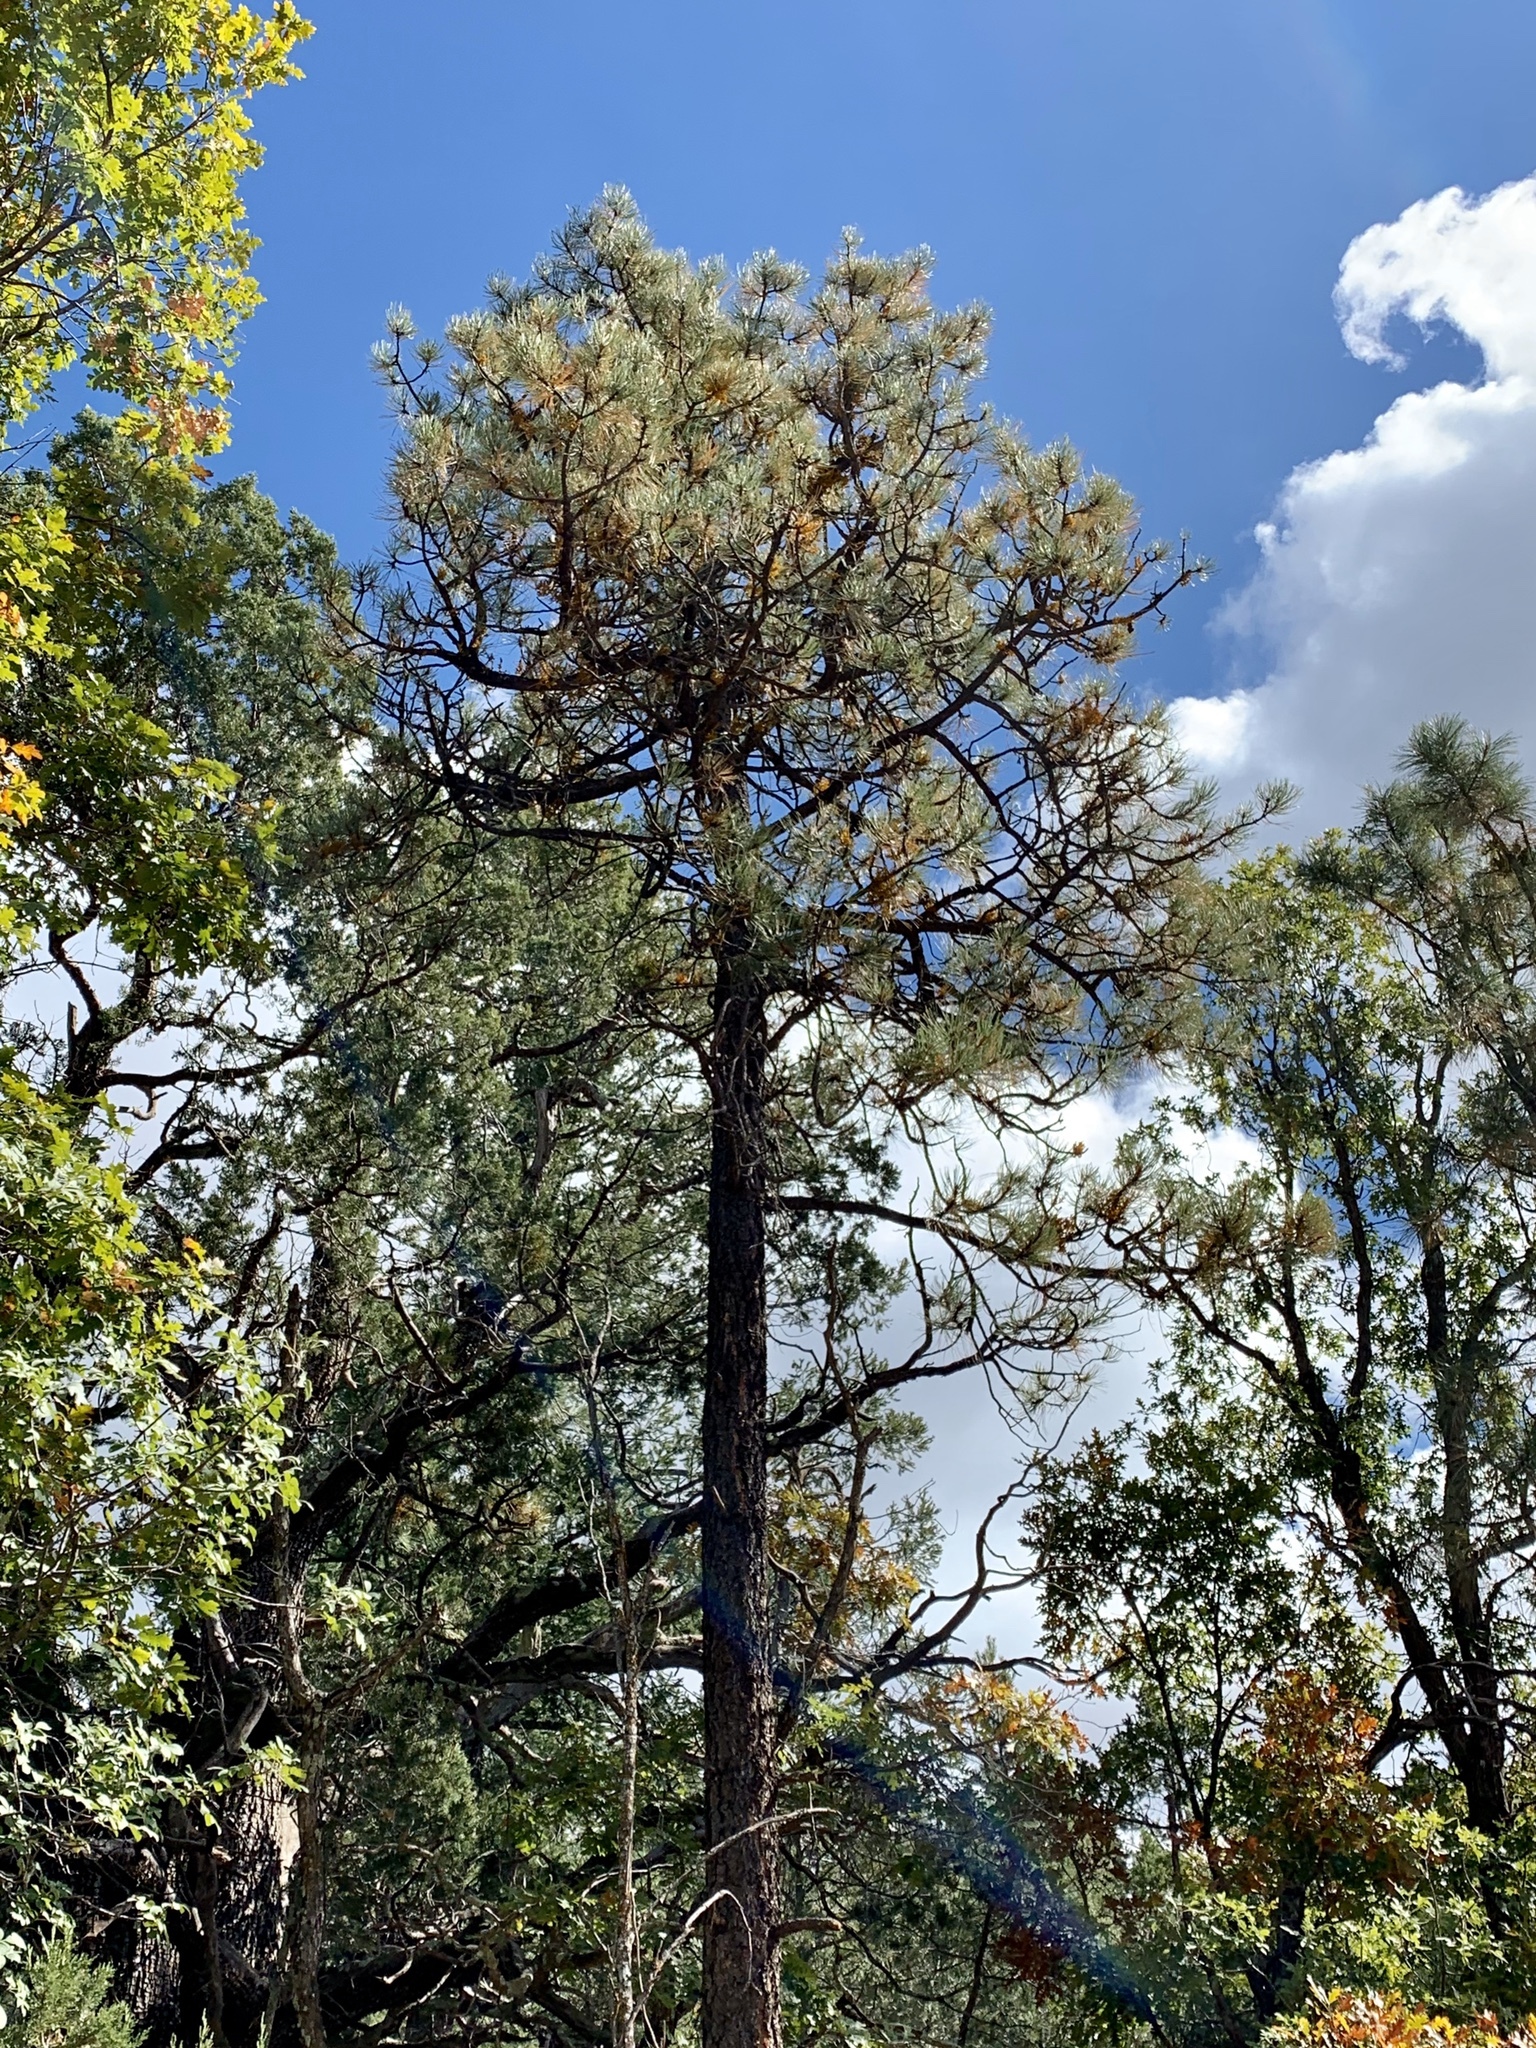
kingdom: Plantae
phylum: Tracheophyta
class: Pinopsida
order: Pinales
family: Pinaceae
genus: Pinus
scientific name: Pinus ponderosa
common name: Western yellow-pine
